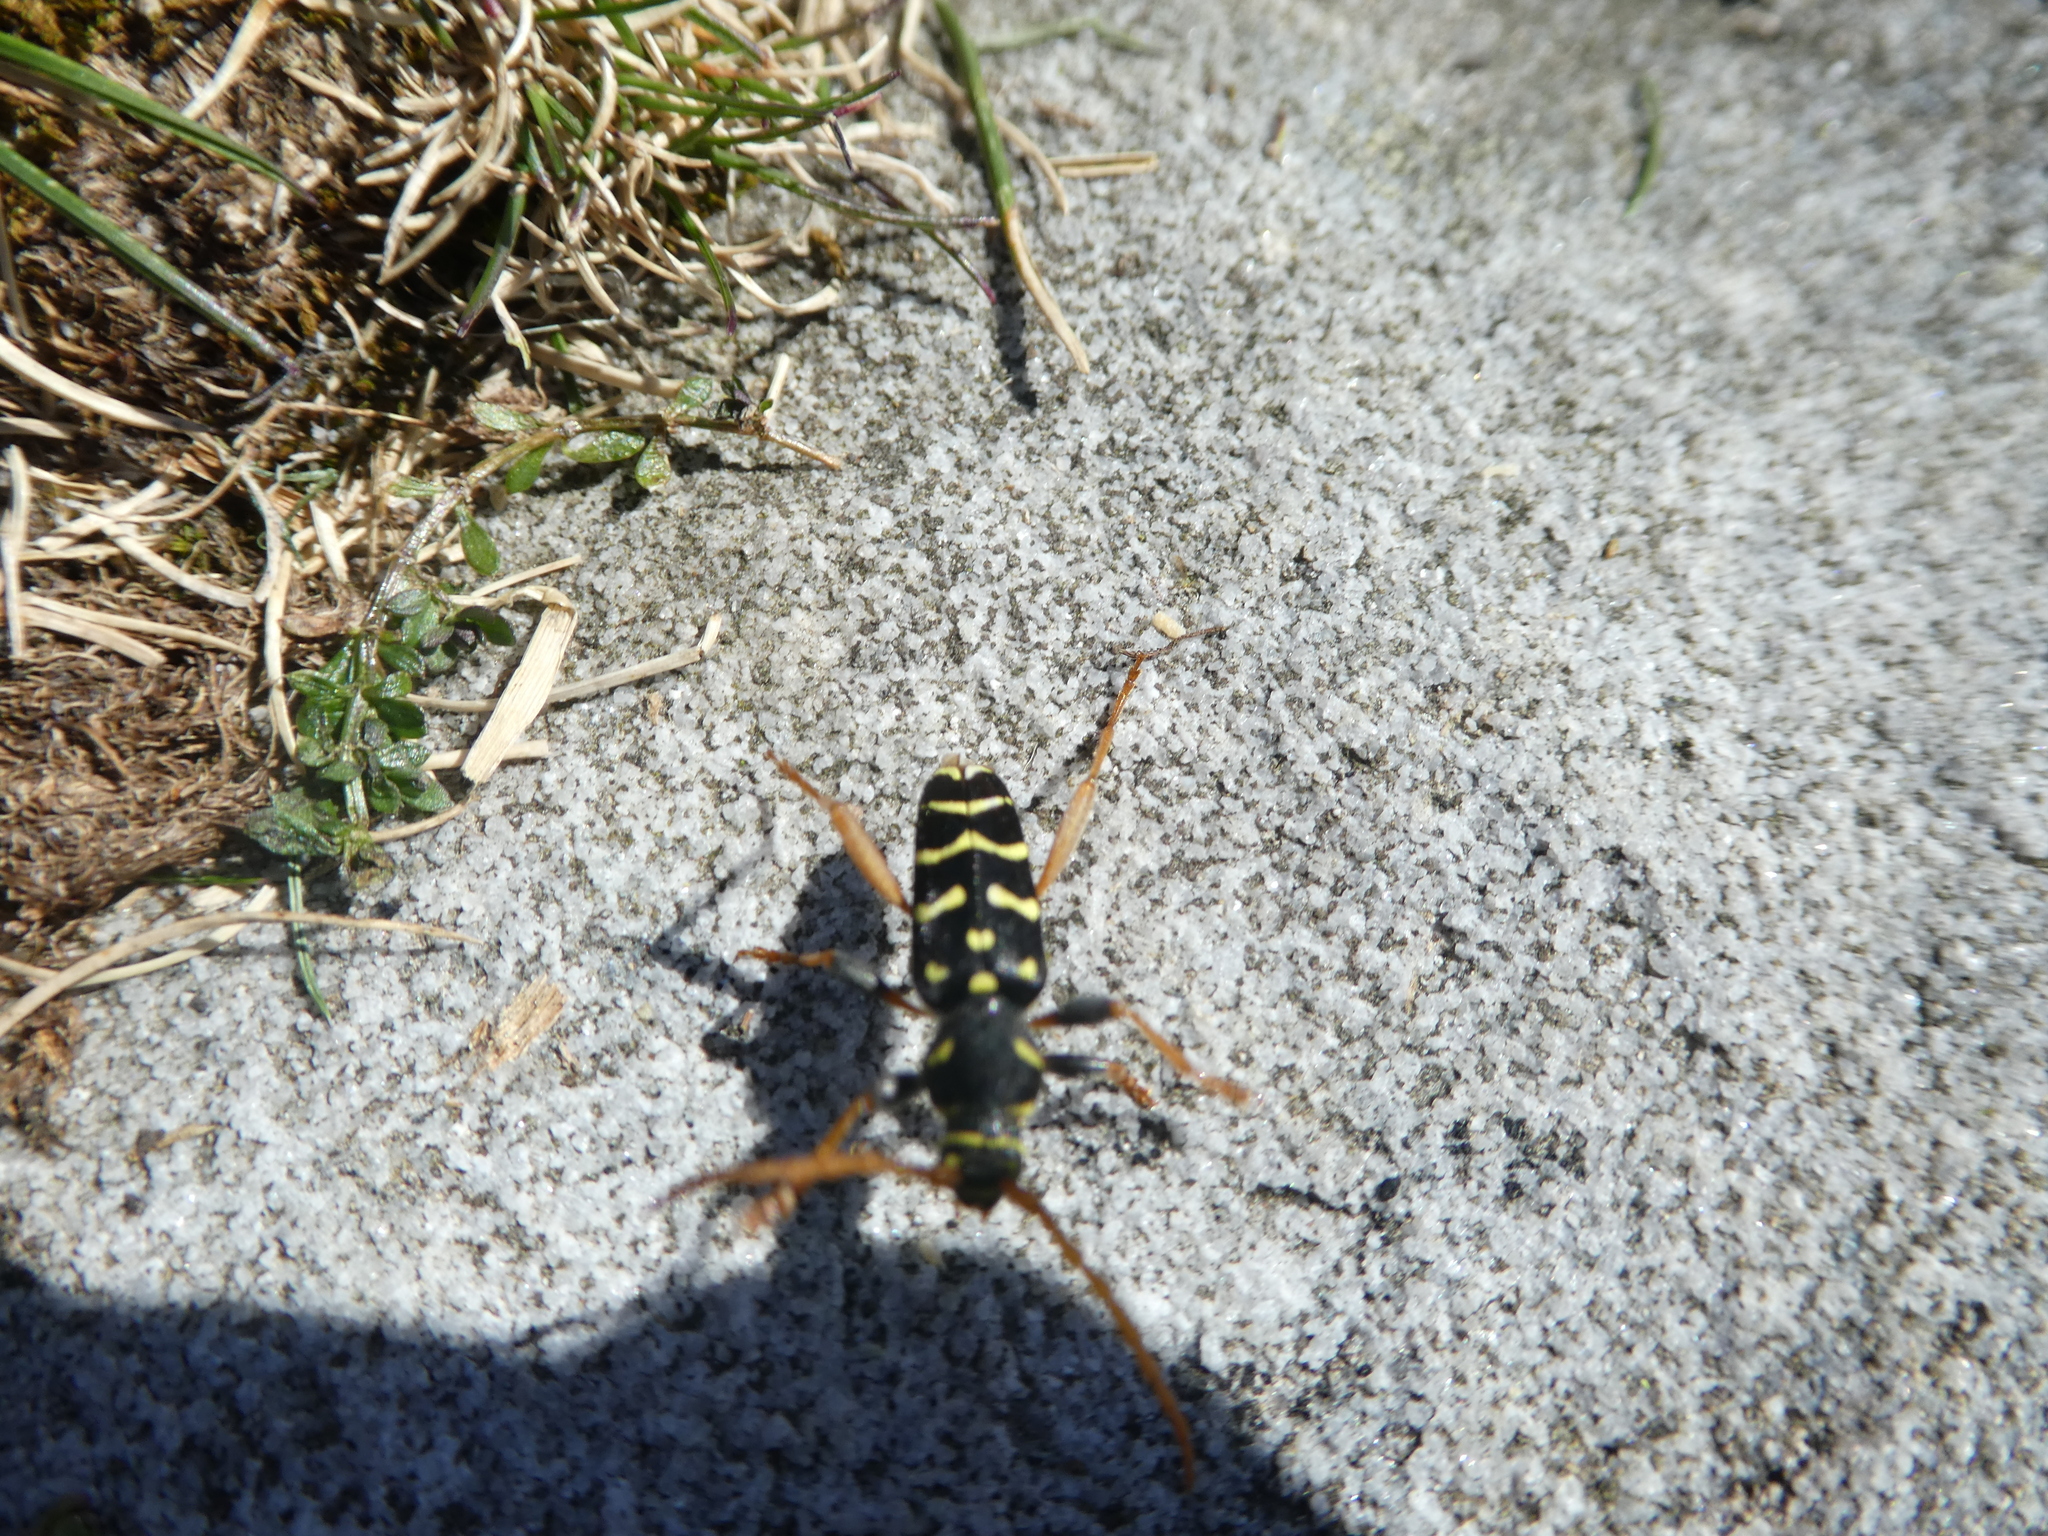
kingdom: Animalia
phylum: Arthropoda
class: Insecta
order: Coleoptera
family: Cerambycidae
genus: Plagionotus
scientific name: Plagionotus arcuatus
